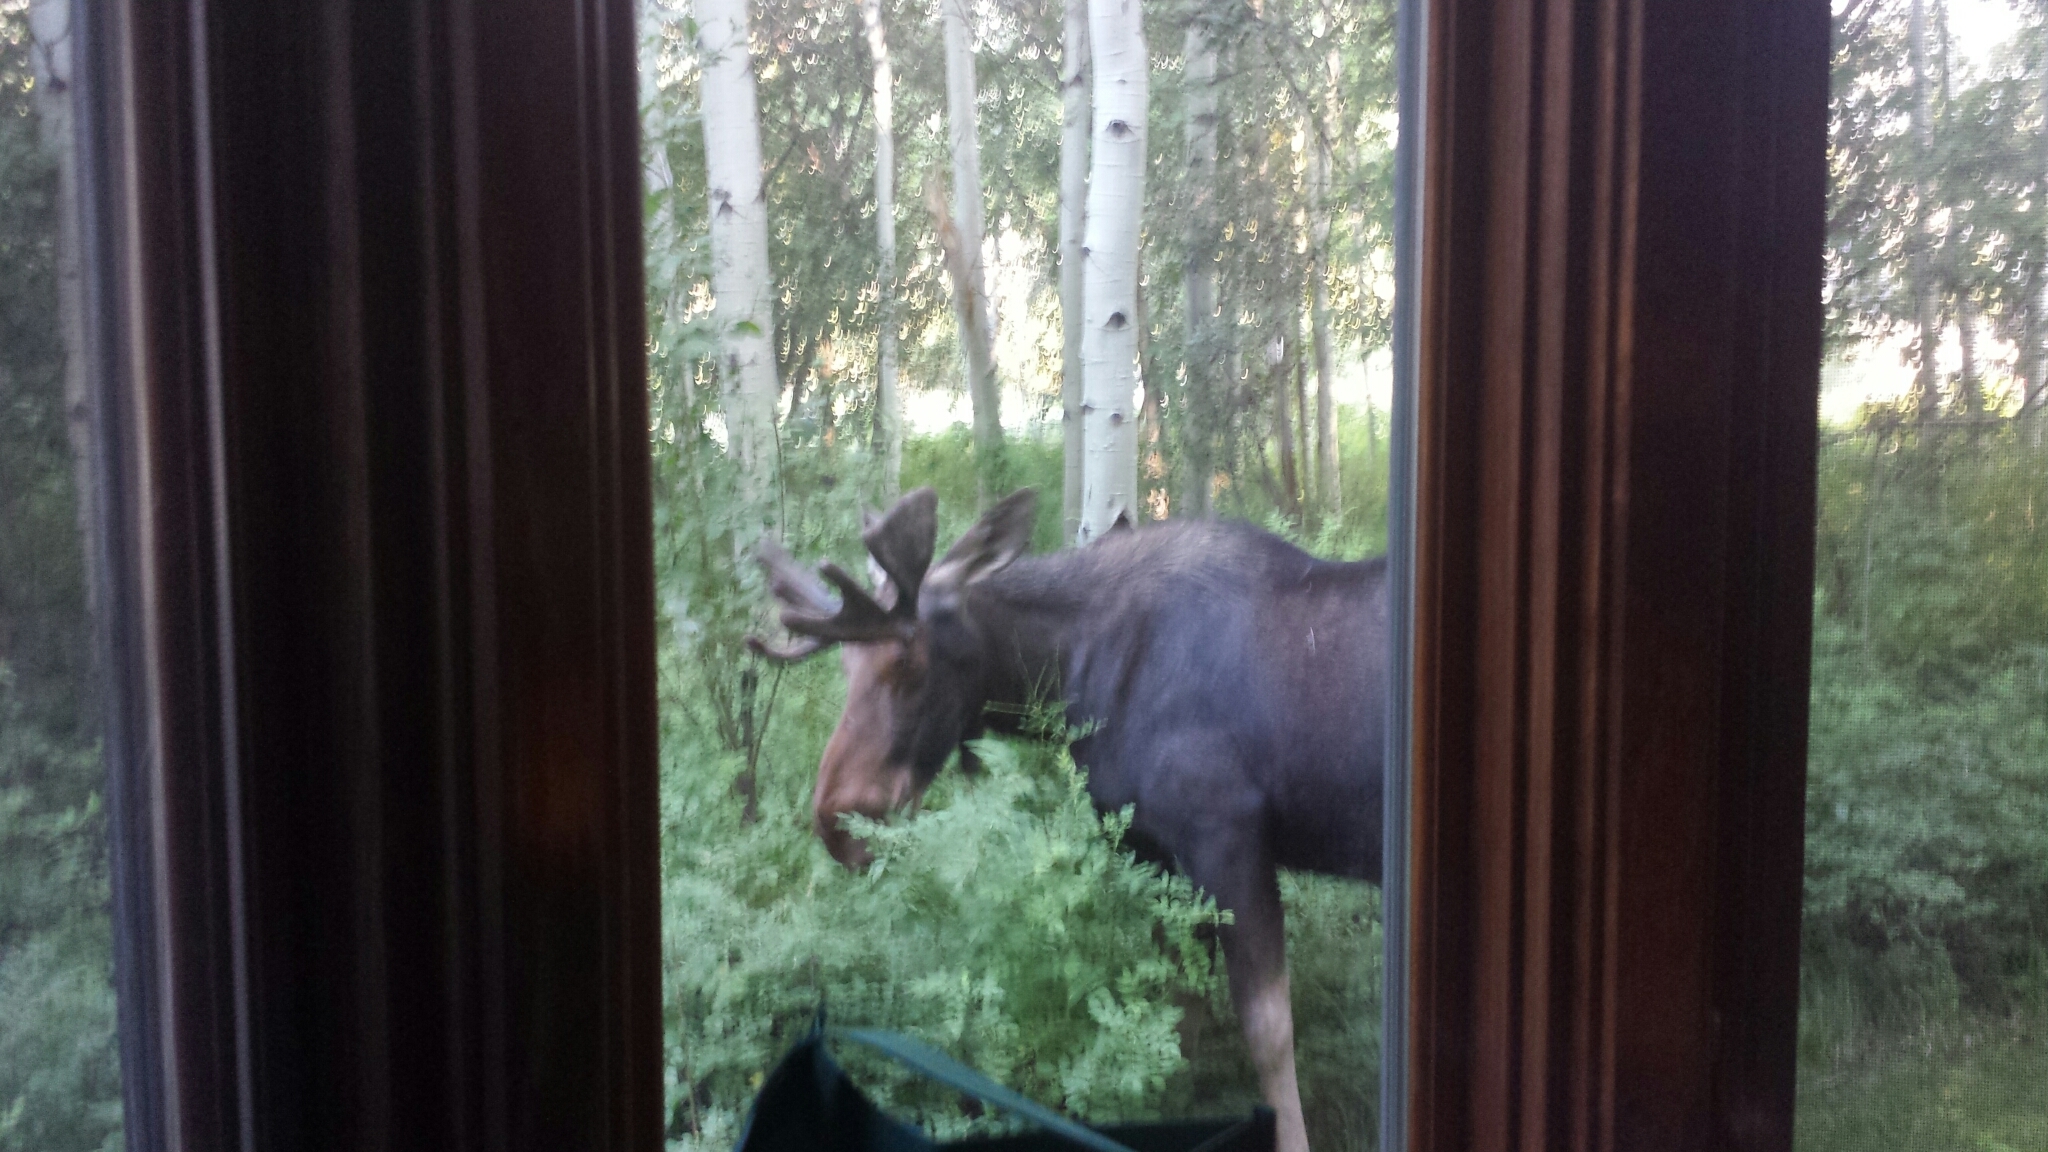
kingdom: Animalia
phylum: Chordata
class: Mammalia
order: Artiodactyla
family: Cervidae
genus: Alces
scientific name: Alces alces
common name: Moose
